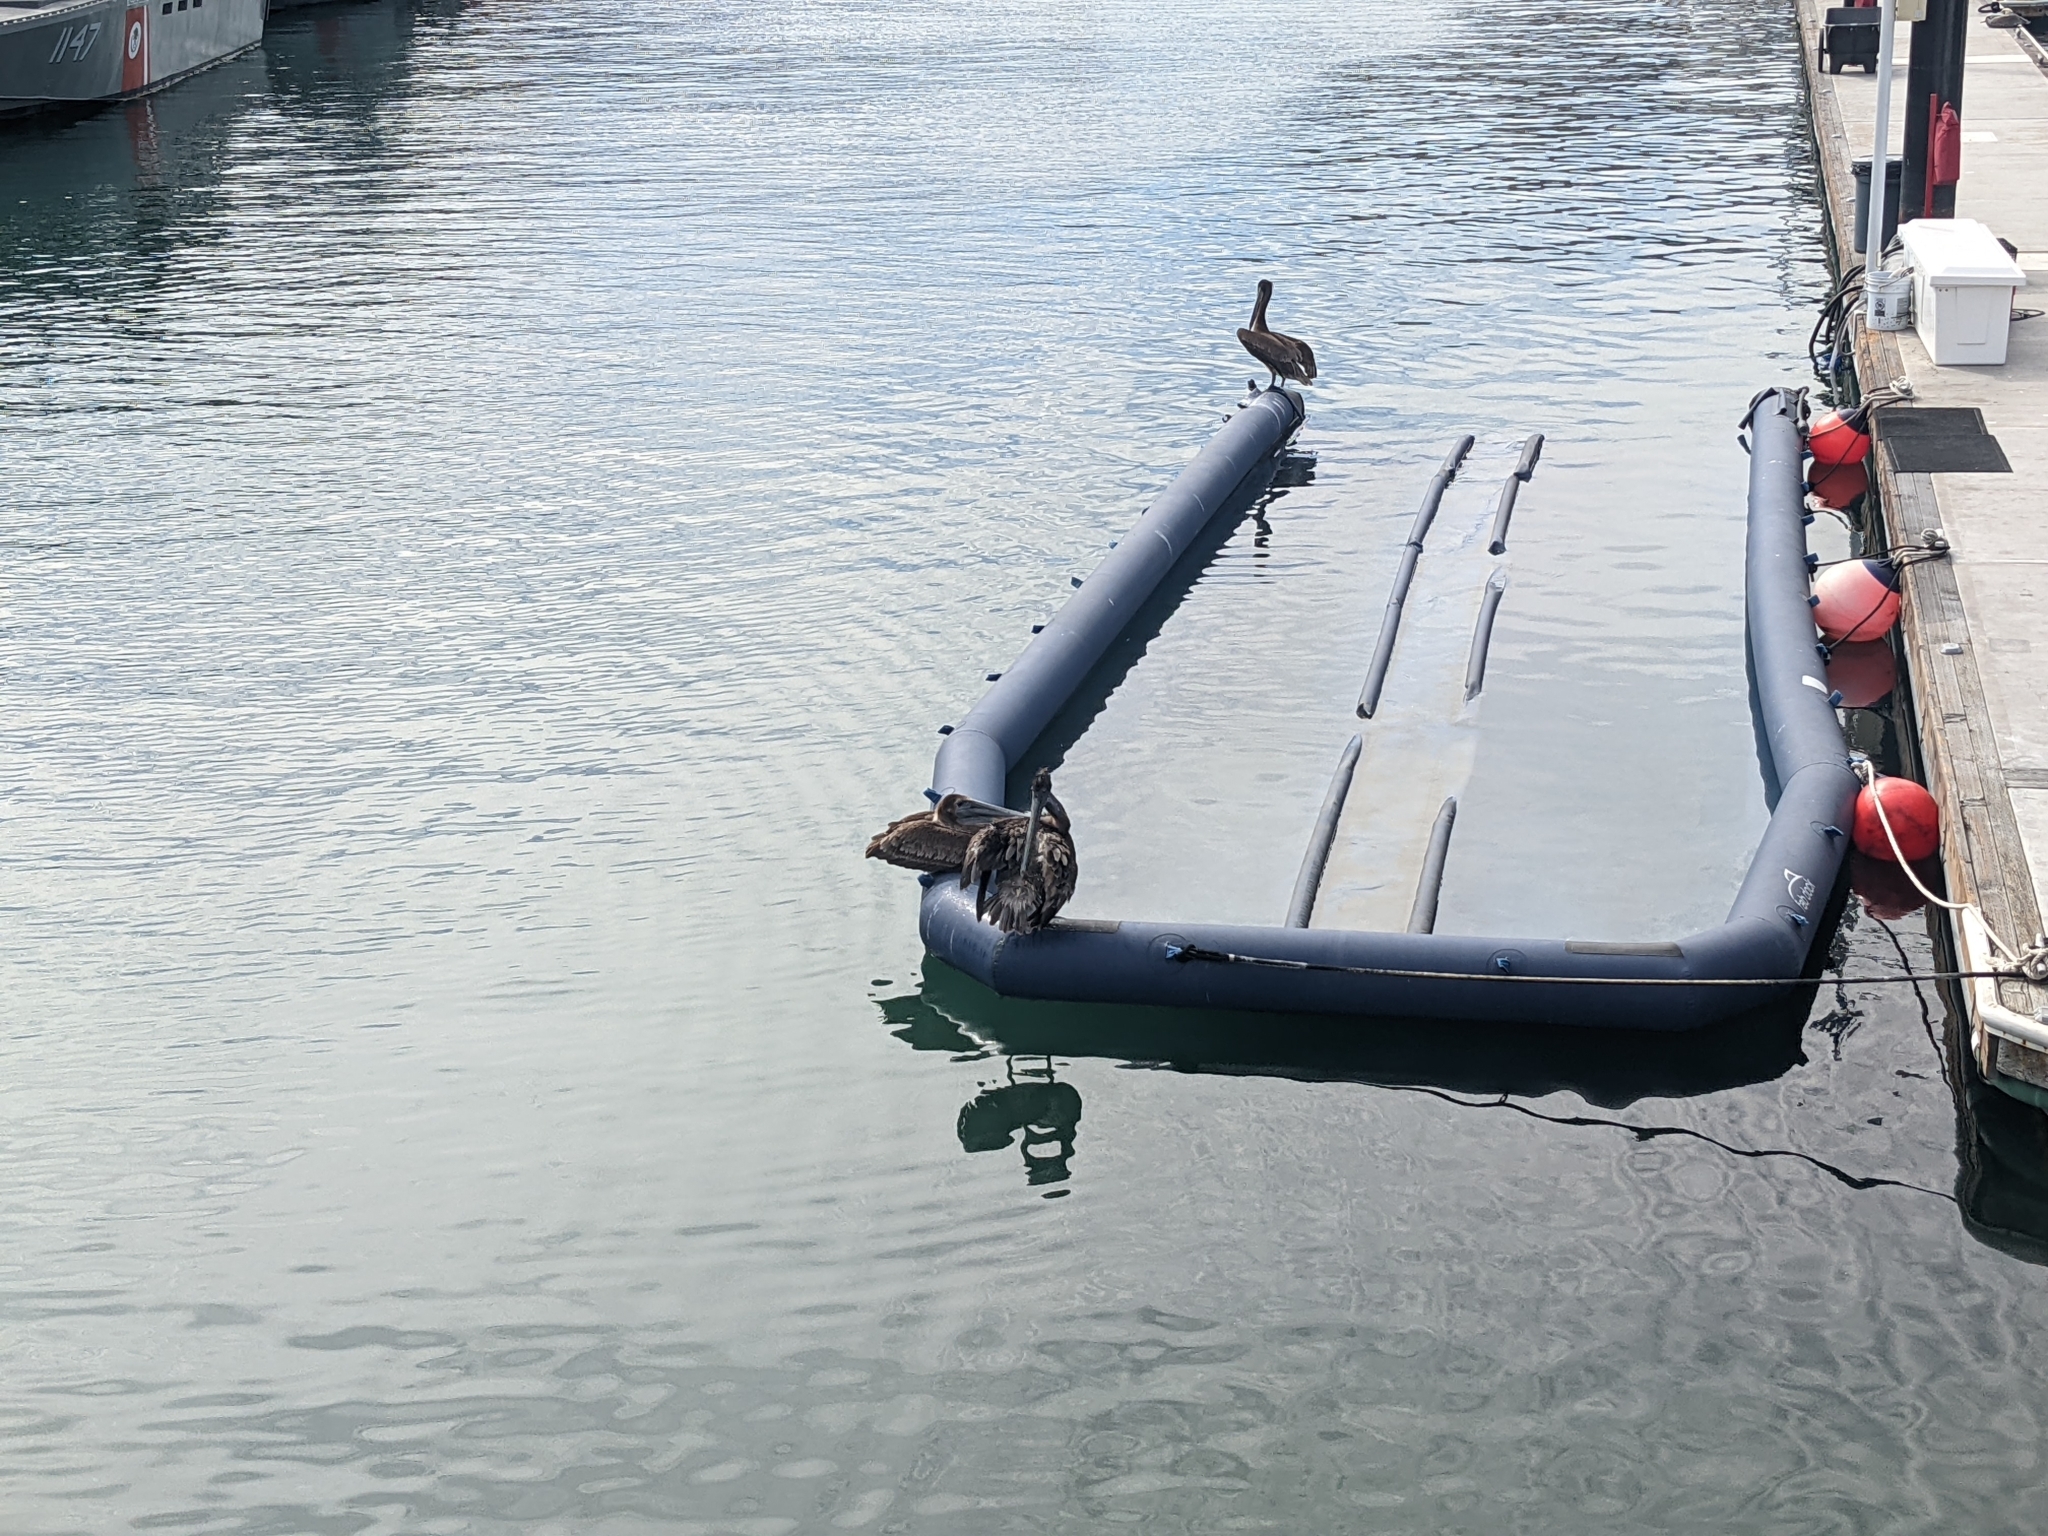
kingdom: Animalia
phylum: Chordata
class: Aves
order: Pelecaniformes
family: Pelecanidae
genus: Pelecanus
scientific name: Pelecanus occidentalis
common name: Brown pelican
